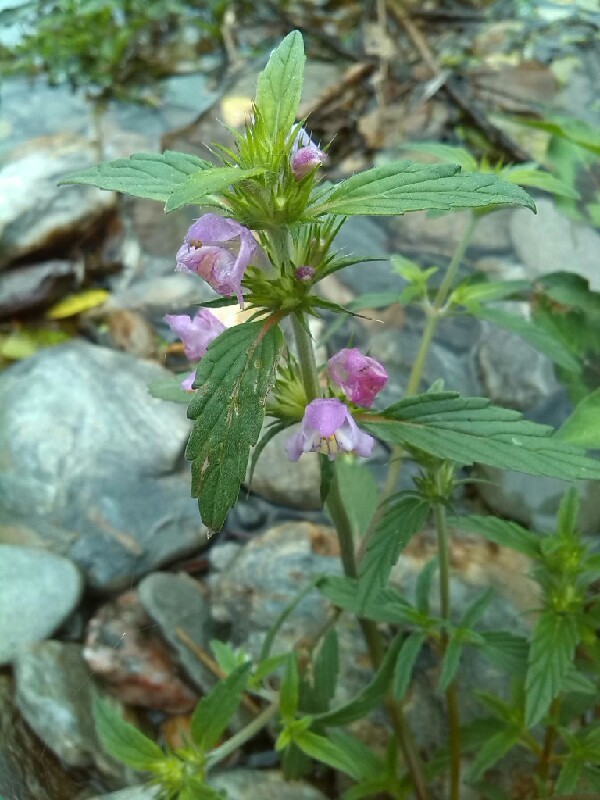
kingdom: Plantae
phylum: Tracheophyta
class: Magnoliopsida
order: Lamiales
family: Lamiaceae
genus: Galeopsis
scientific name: Galeopsis ladanum
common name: Broad-leaved hemp-nettle
